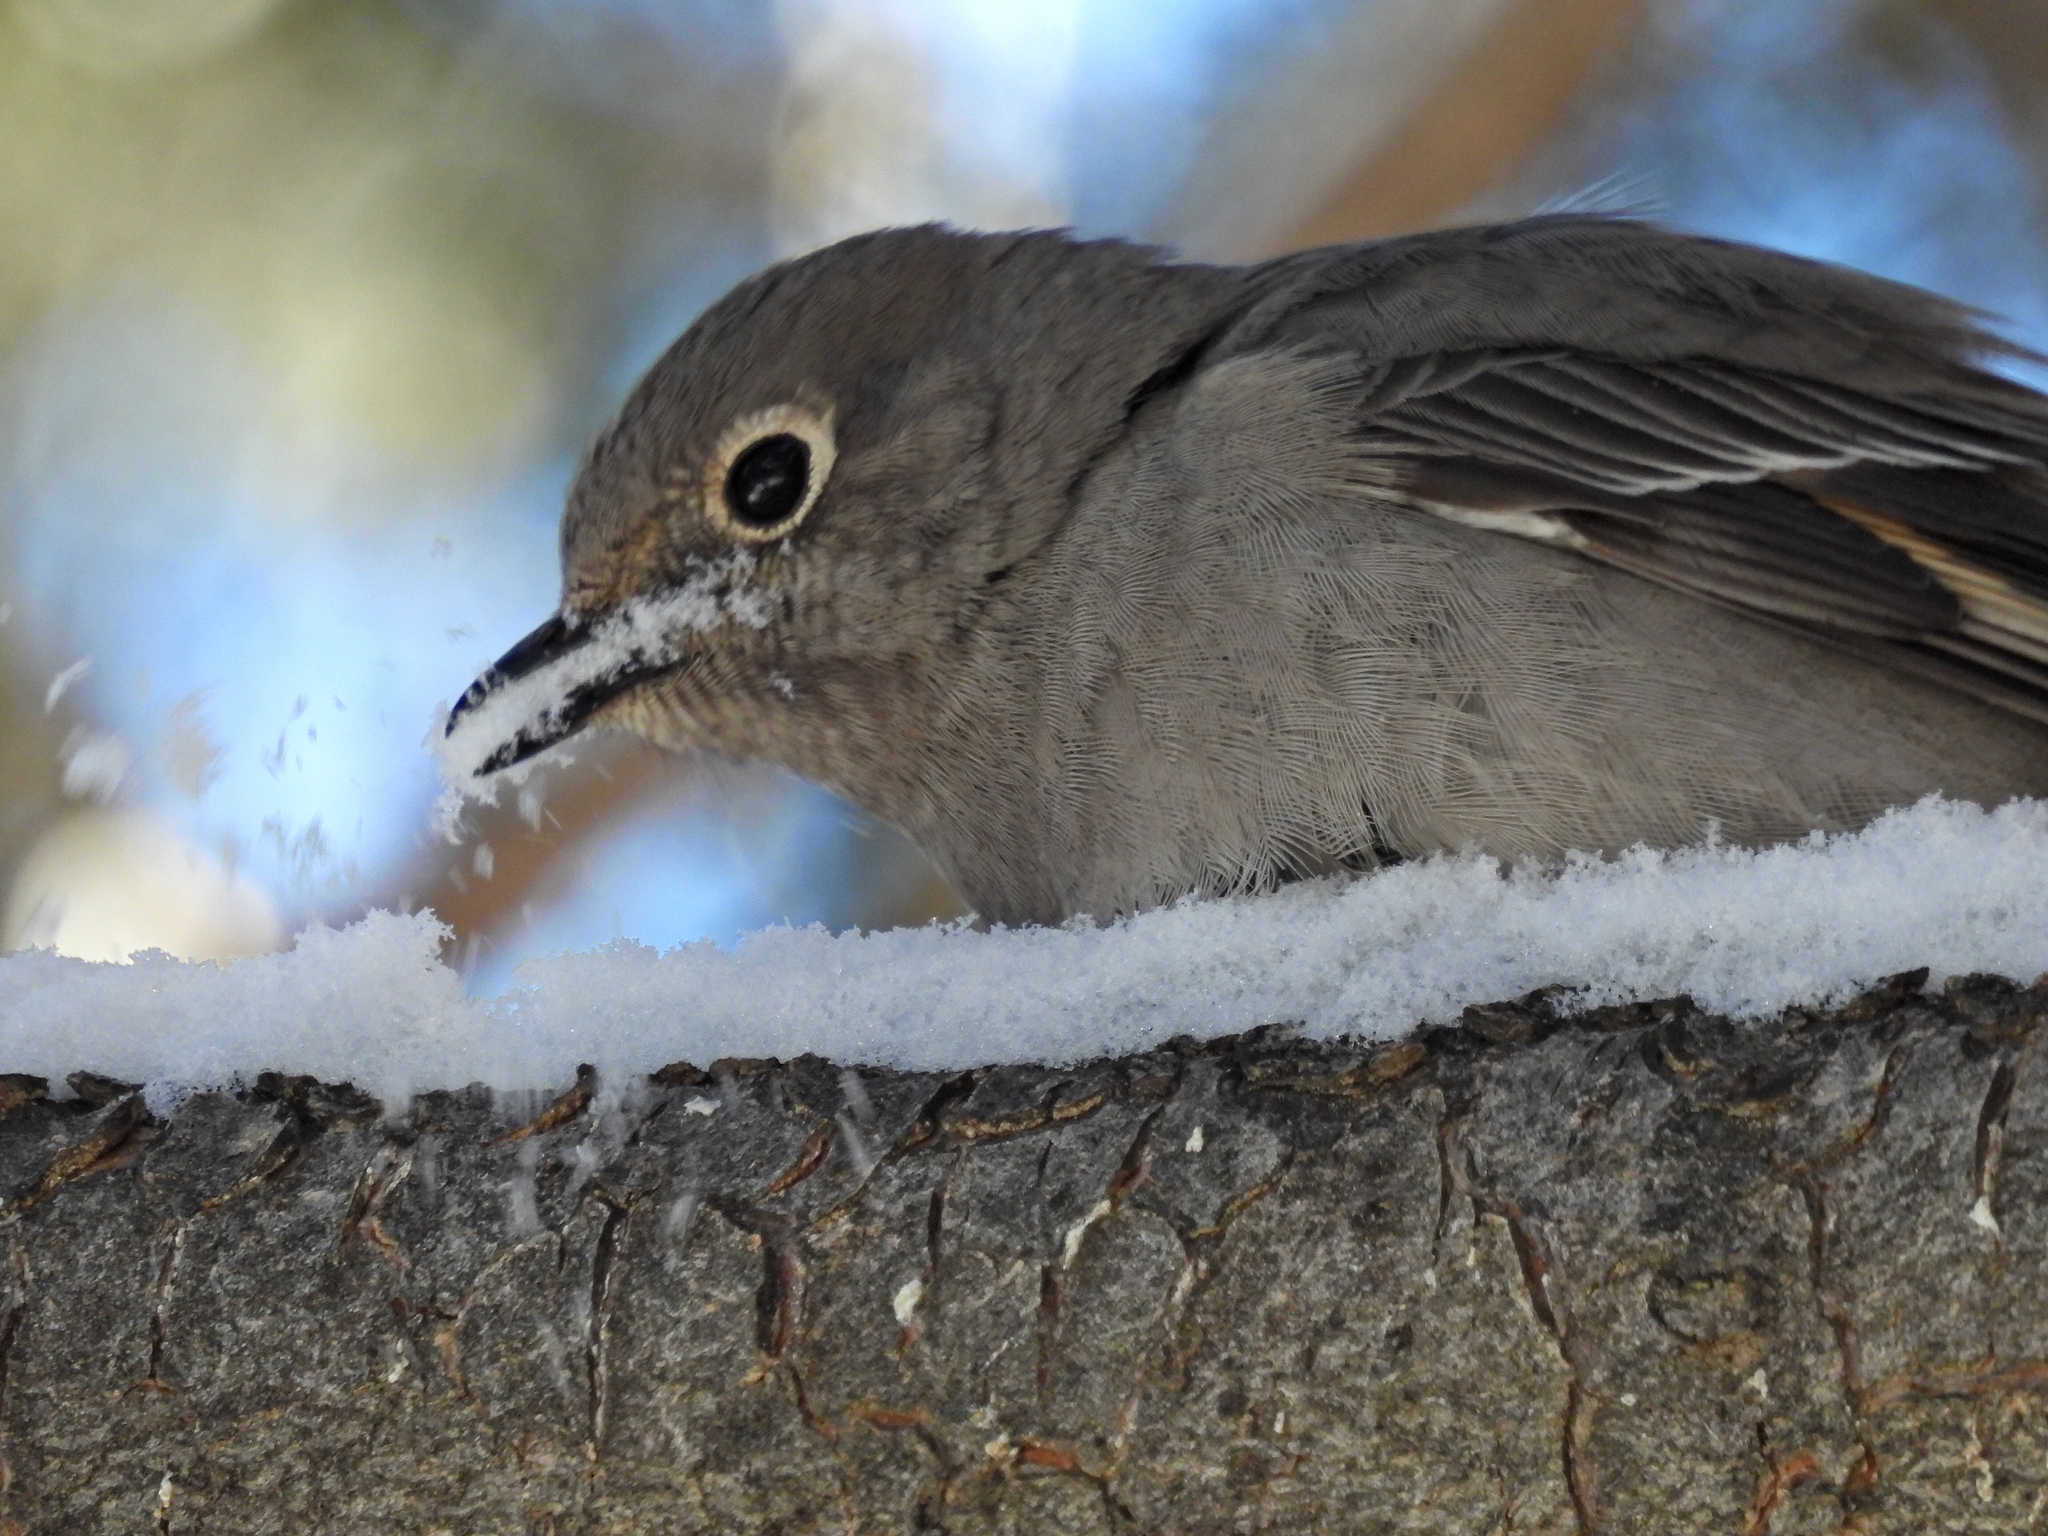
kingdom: Animalia
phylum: Chordata
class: Aves
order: Passeriformes
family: Turdidae
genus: Myadestes
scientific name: Myadestes townsendi
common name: Townsend's solitaire
